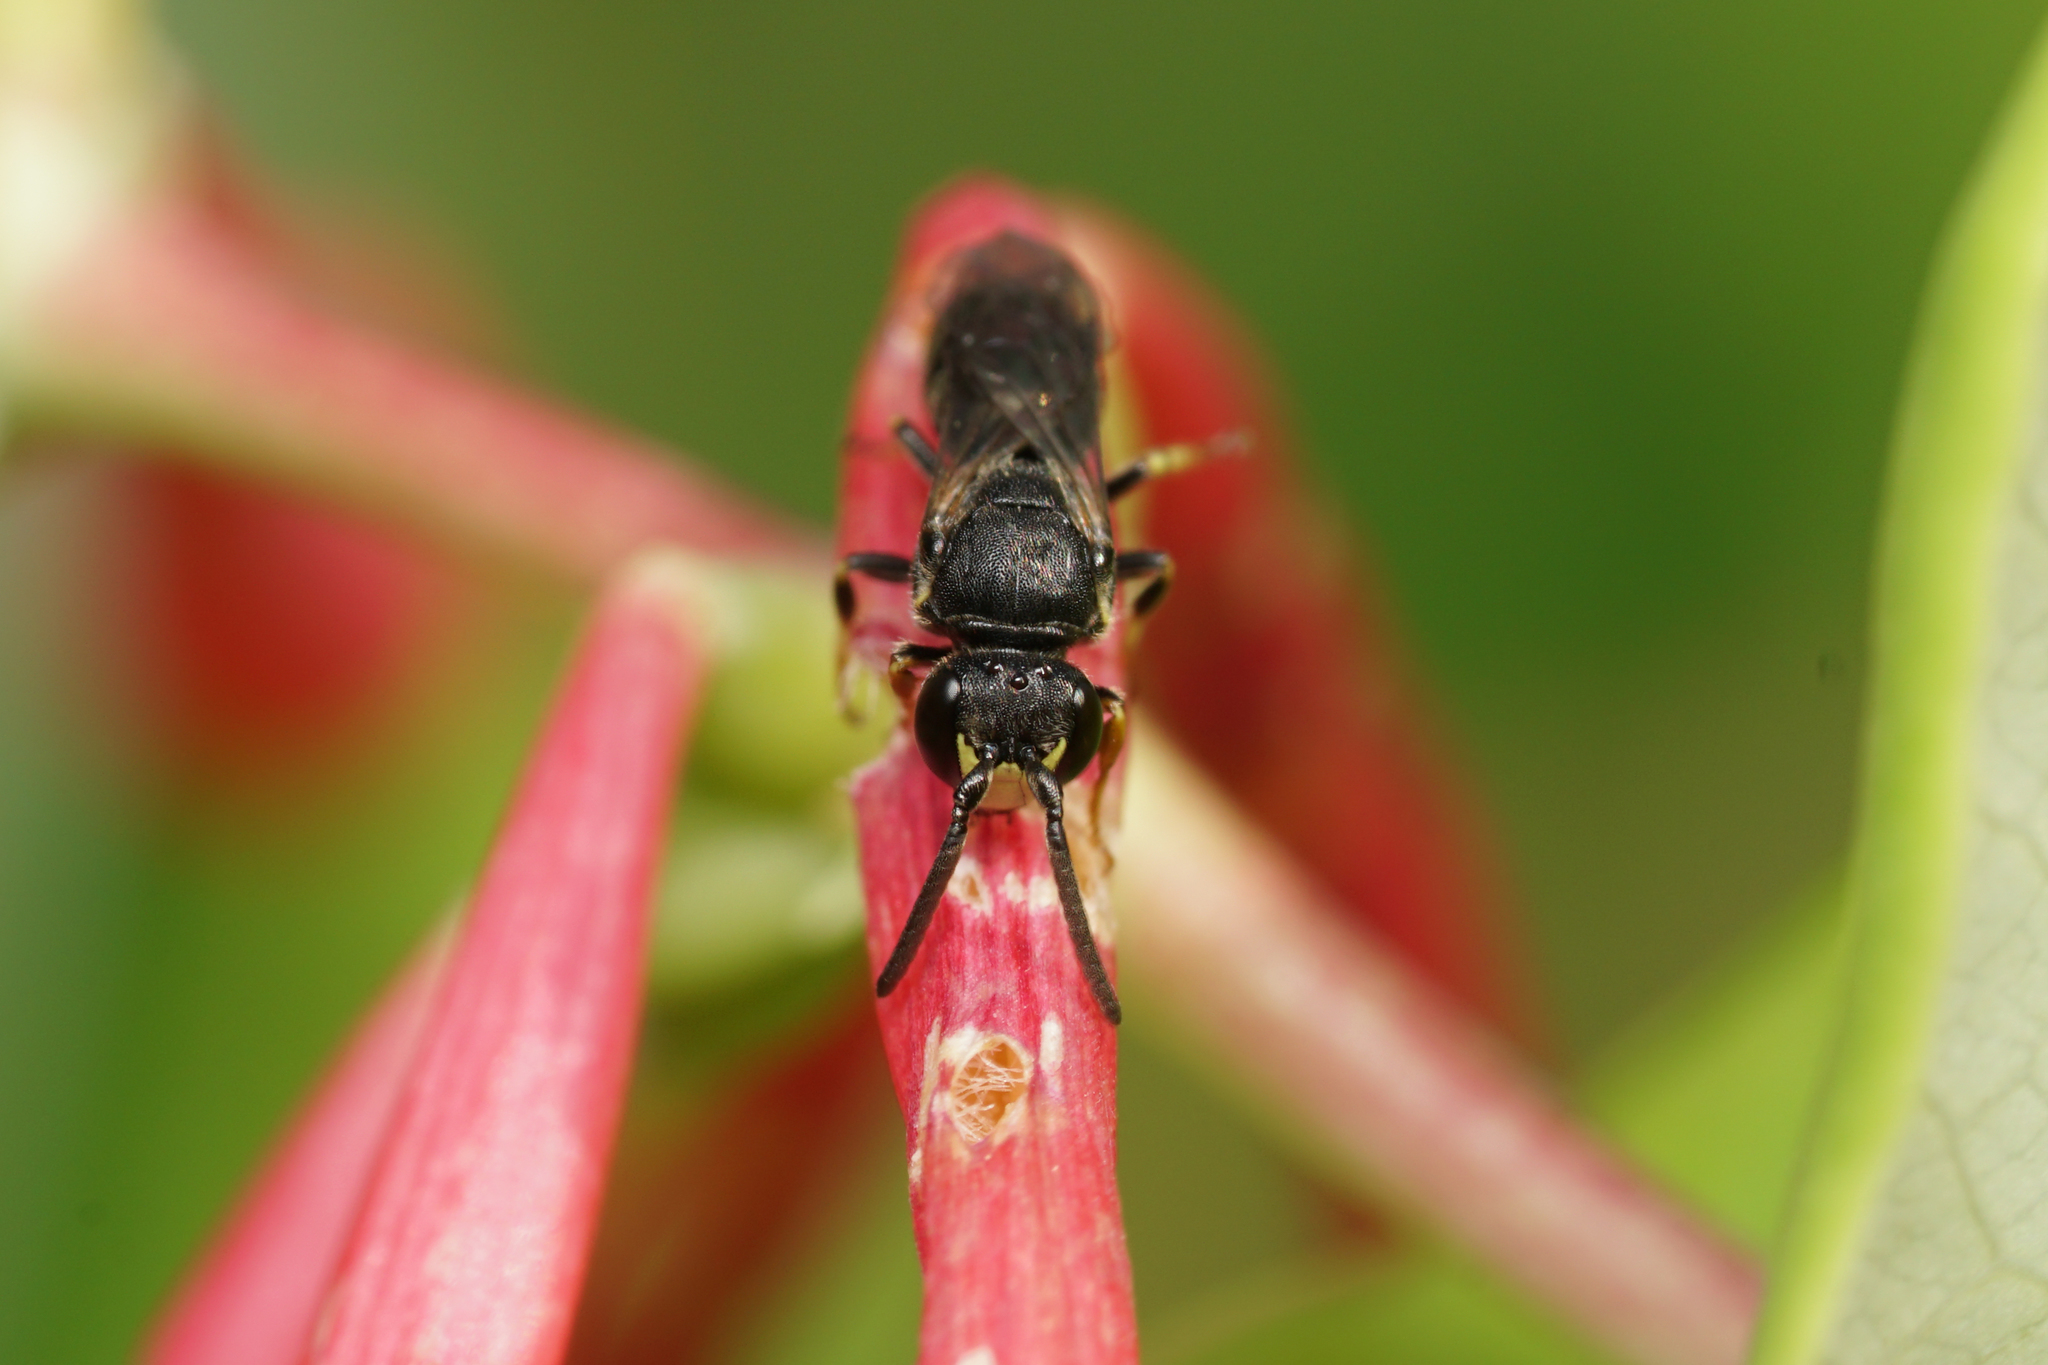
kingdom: Animalia
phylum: Arthropoda
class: Insecta
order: Hymenoptera
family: Colletidae
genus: Hylaeus
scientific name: Hylaeus
